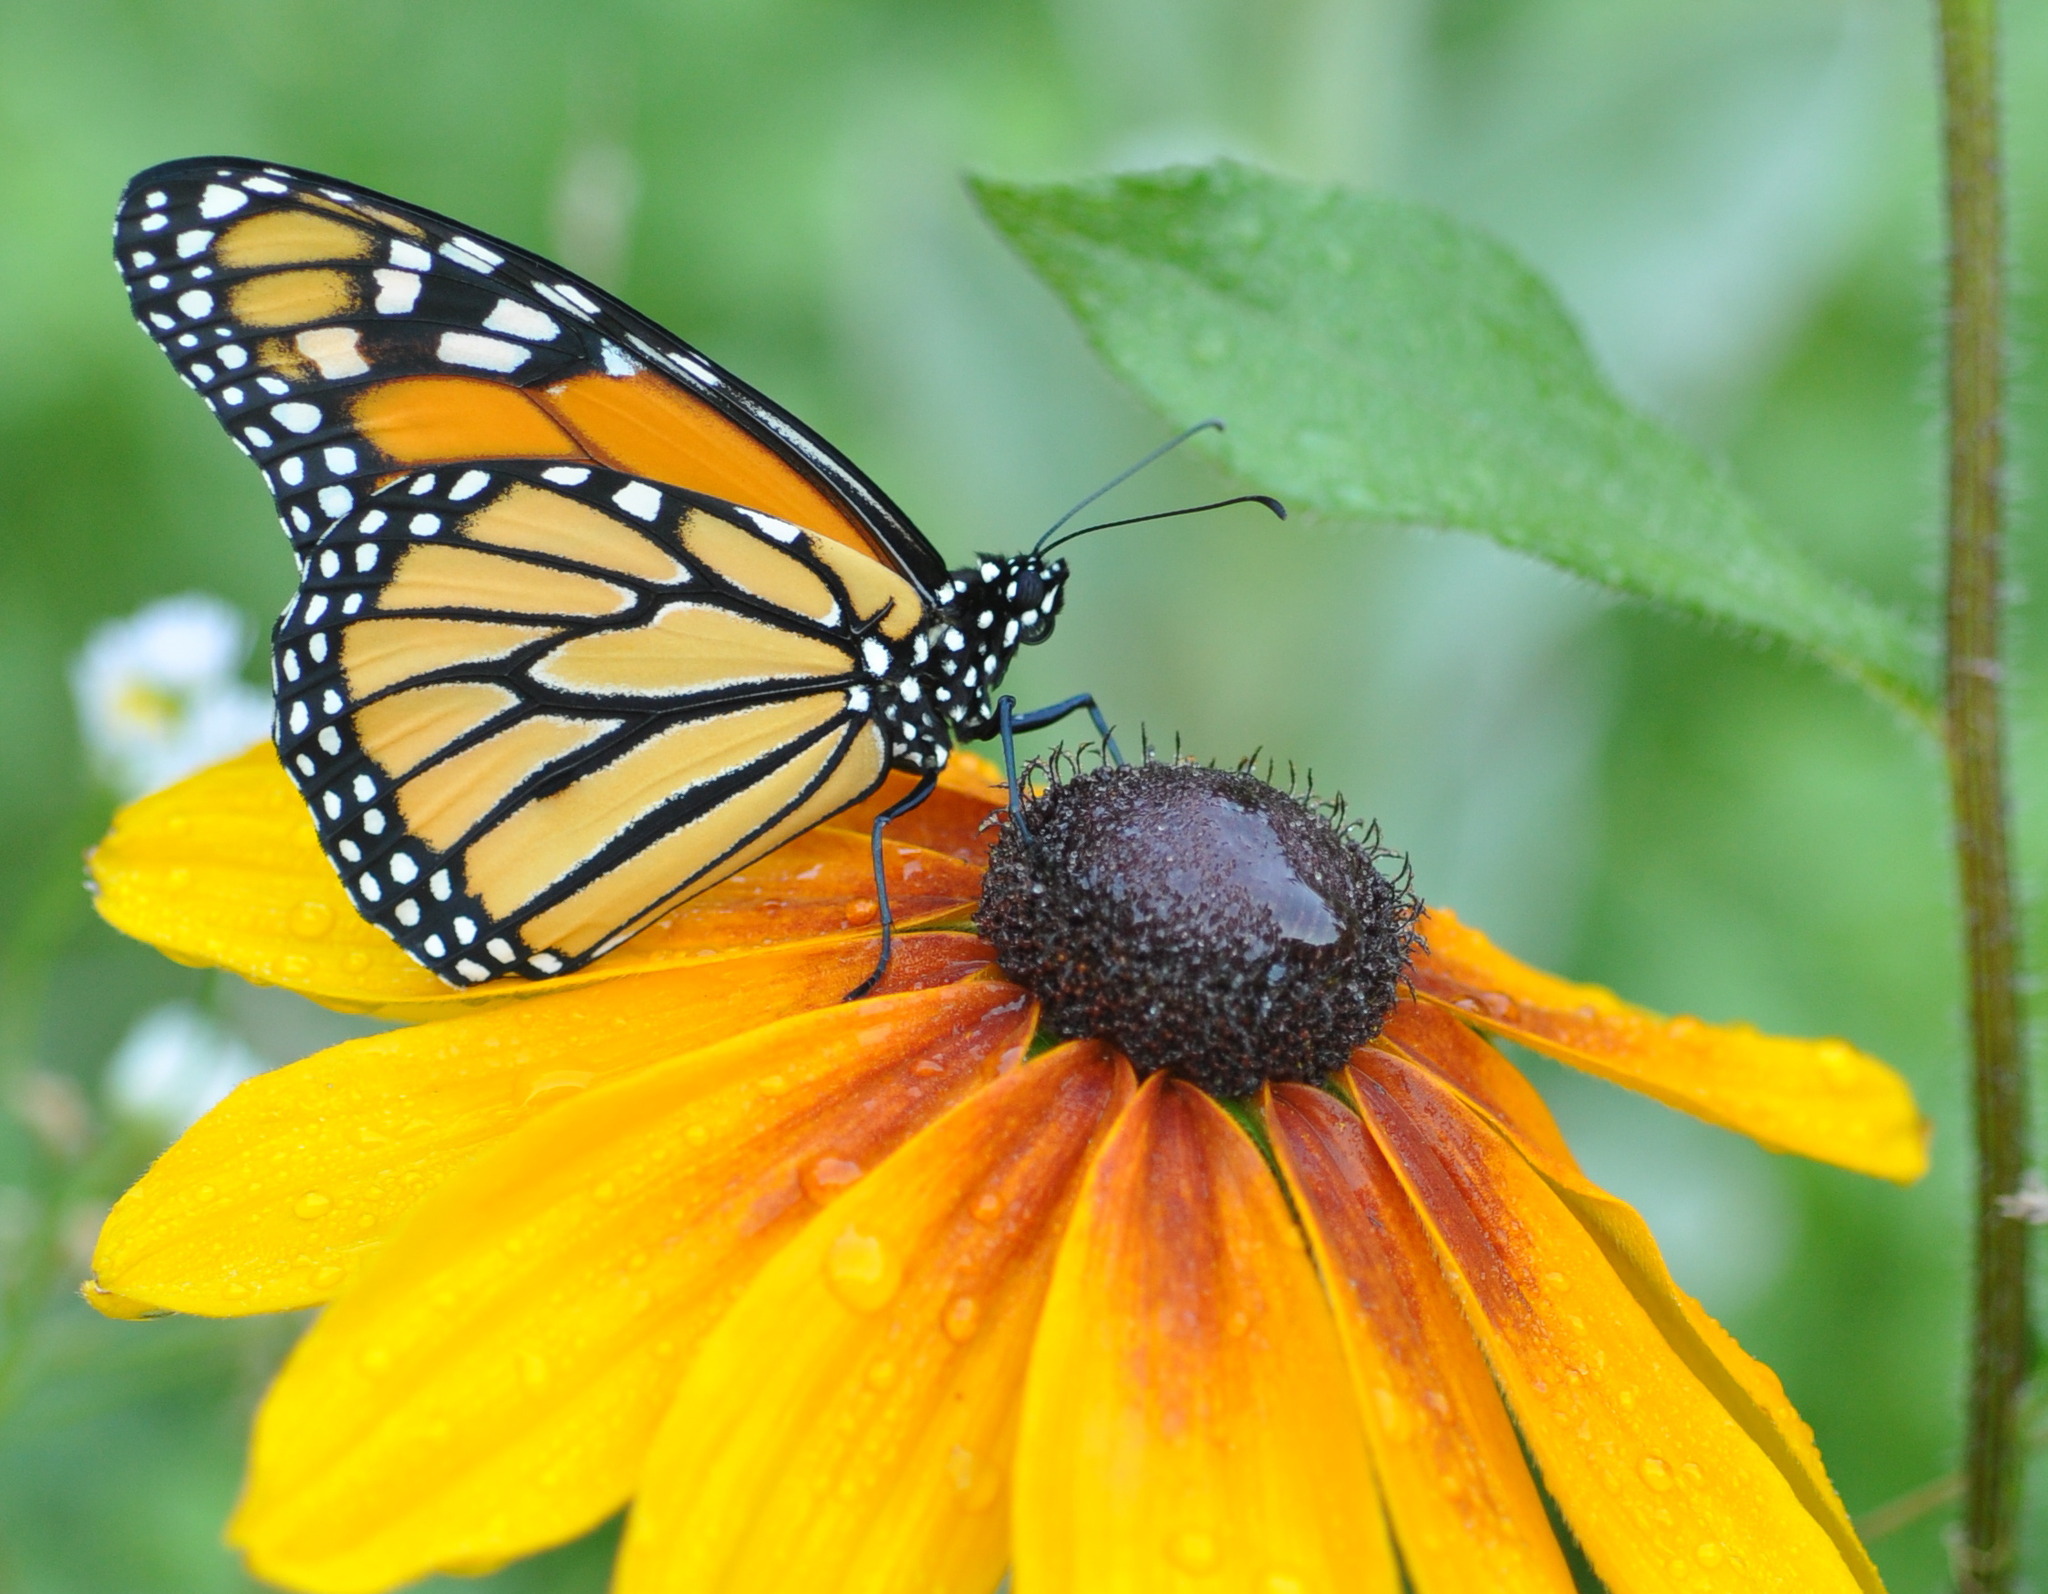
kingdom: Animalia
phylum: Arthropoda
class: Insecta
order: Lepidoptera
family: Nymphalidae
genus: Danaus
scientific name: Danaus plexippus
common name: Monarch
